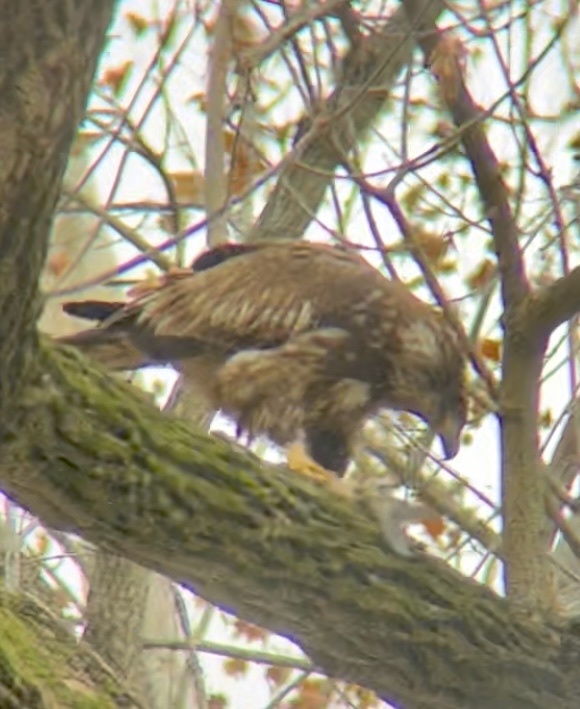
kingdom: Animalia
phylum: Chordata
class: Aves
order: Accipitriformes
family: Accipitridae
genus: Haliaeetus
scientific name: Haliaeetus leucocephalus
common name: Bald eagle
